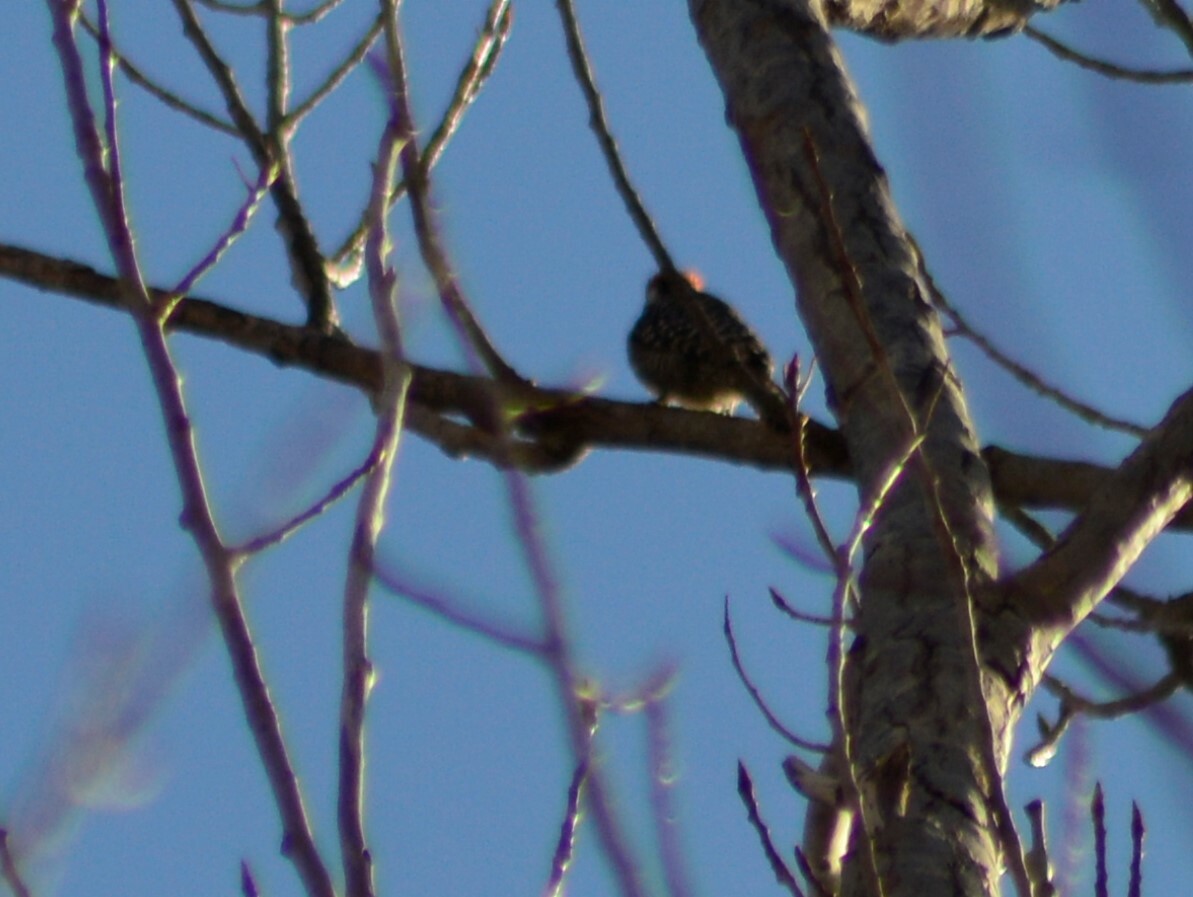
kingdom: Animalia
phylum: Chordata
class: Aves
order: Piciformes
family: Picidae
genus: Veniliornis
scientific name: Veniliornis mixtus
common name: Checkered woodpecker
